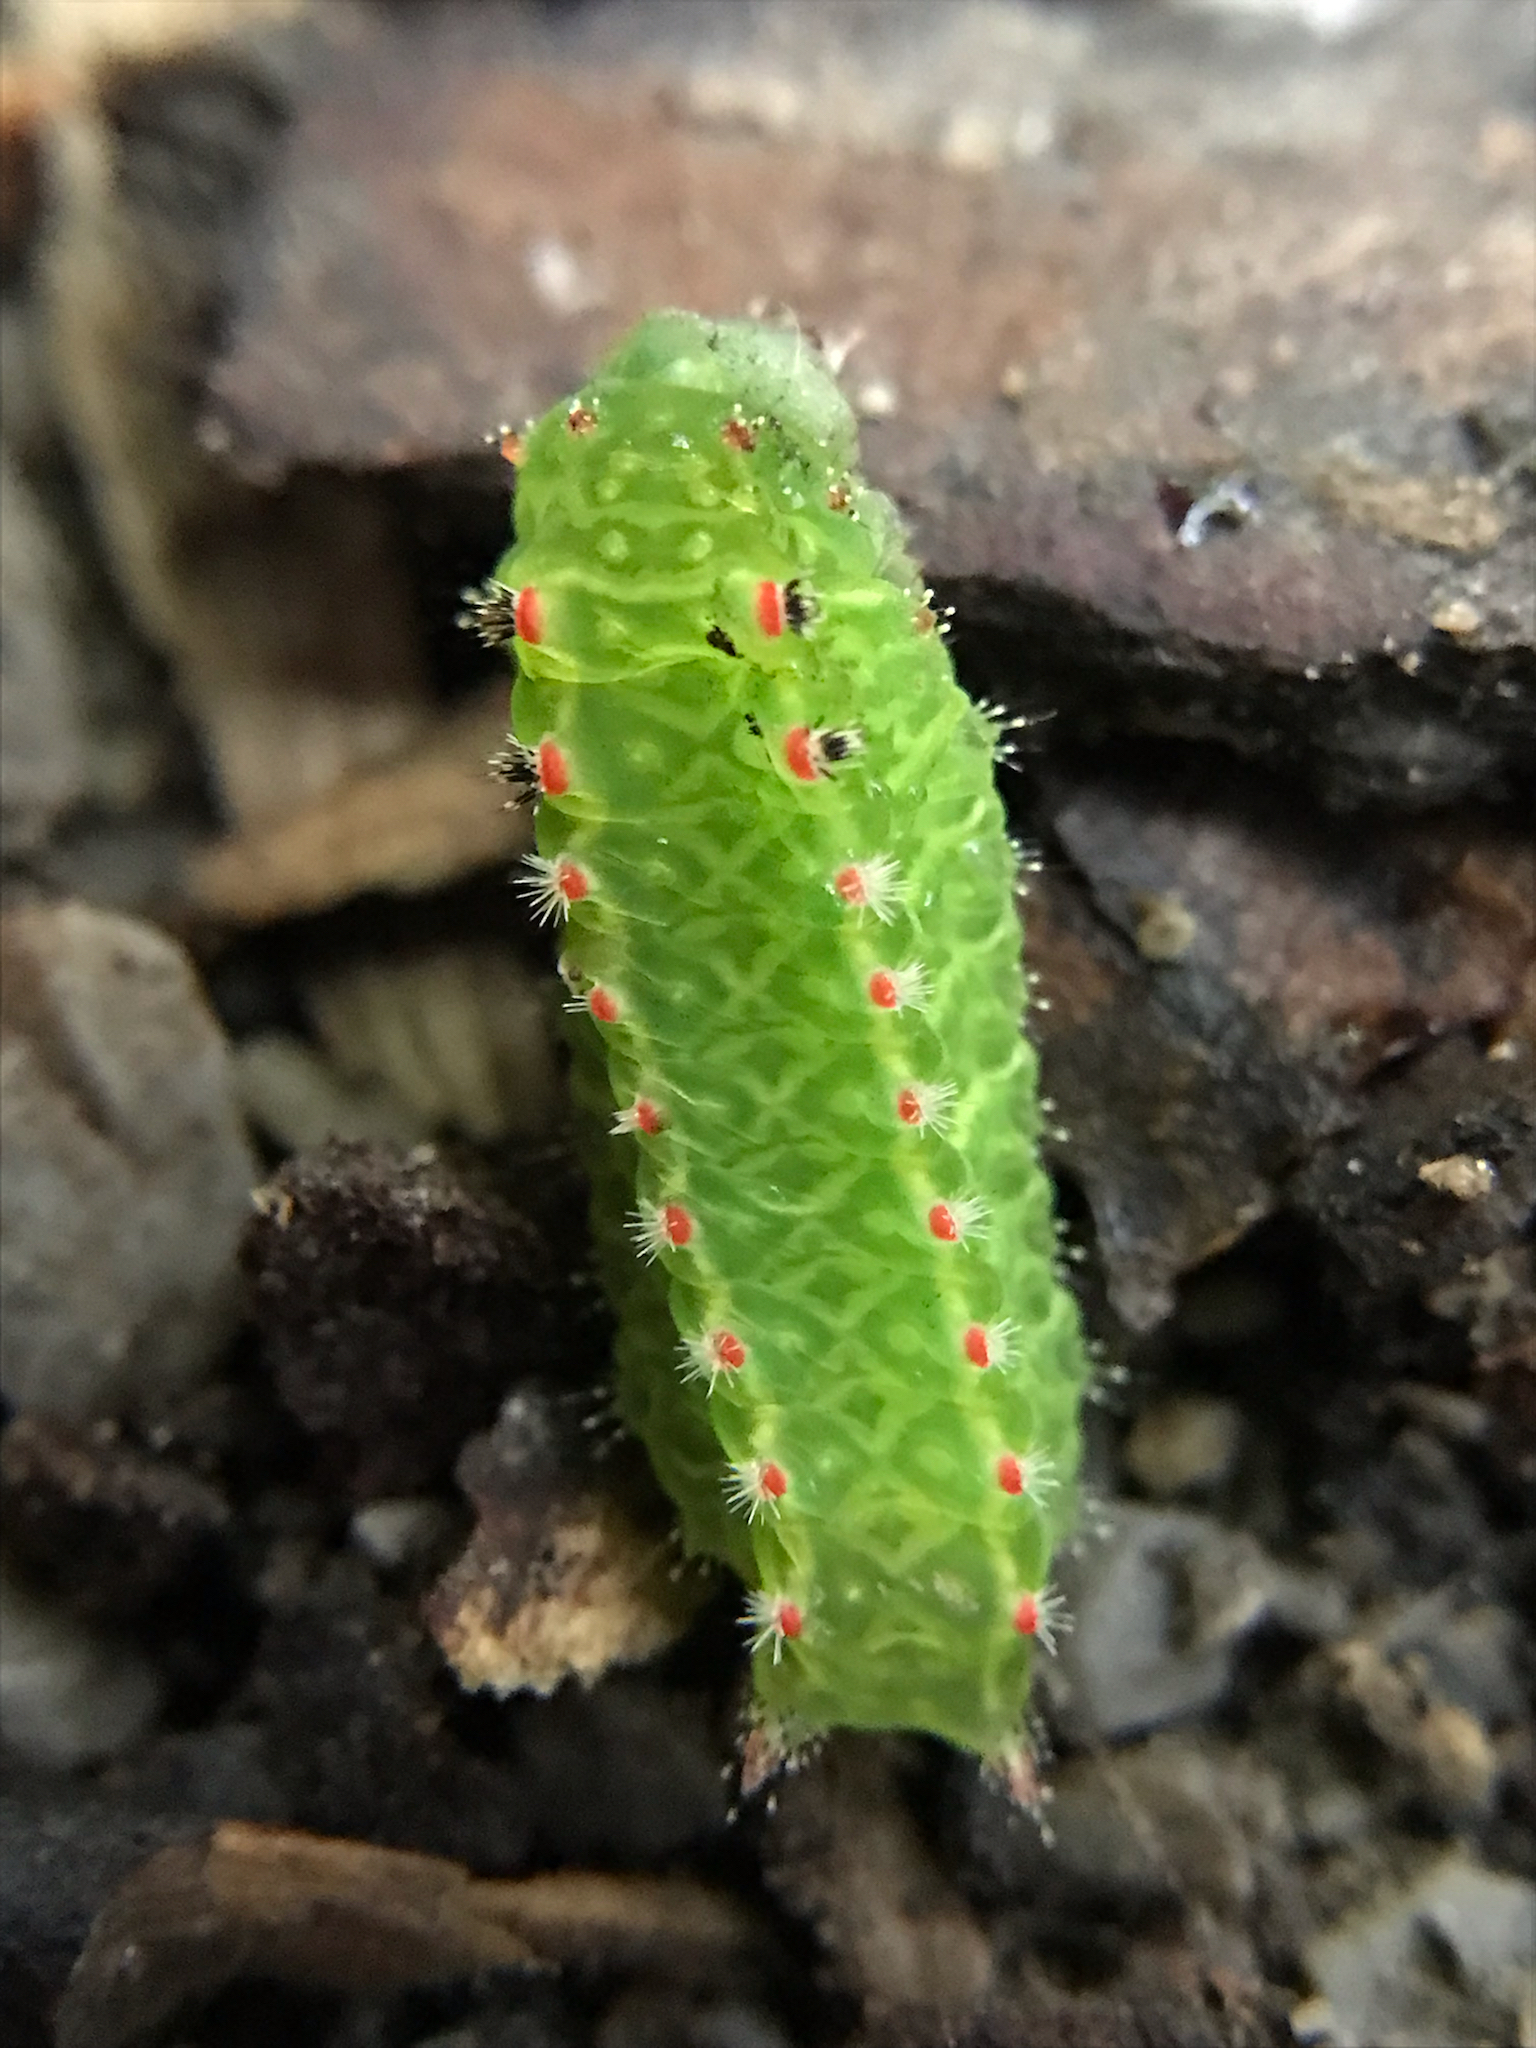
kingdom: Animalia
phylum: Arthropoda
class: Insecta
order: Lepidoptera
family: Limacodidae
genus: Natada
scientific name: Natada nasoni
